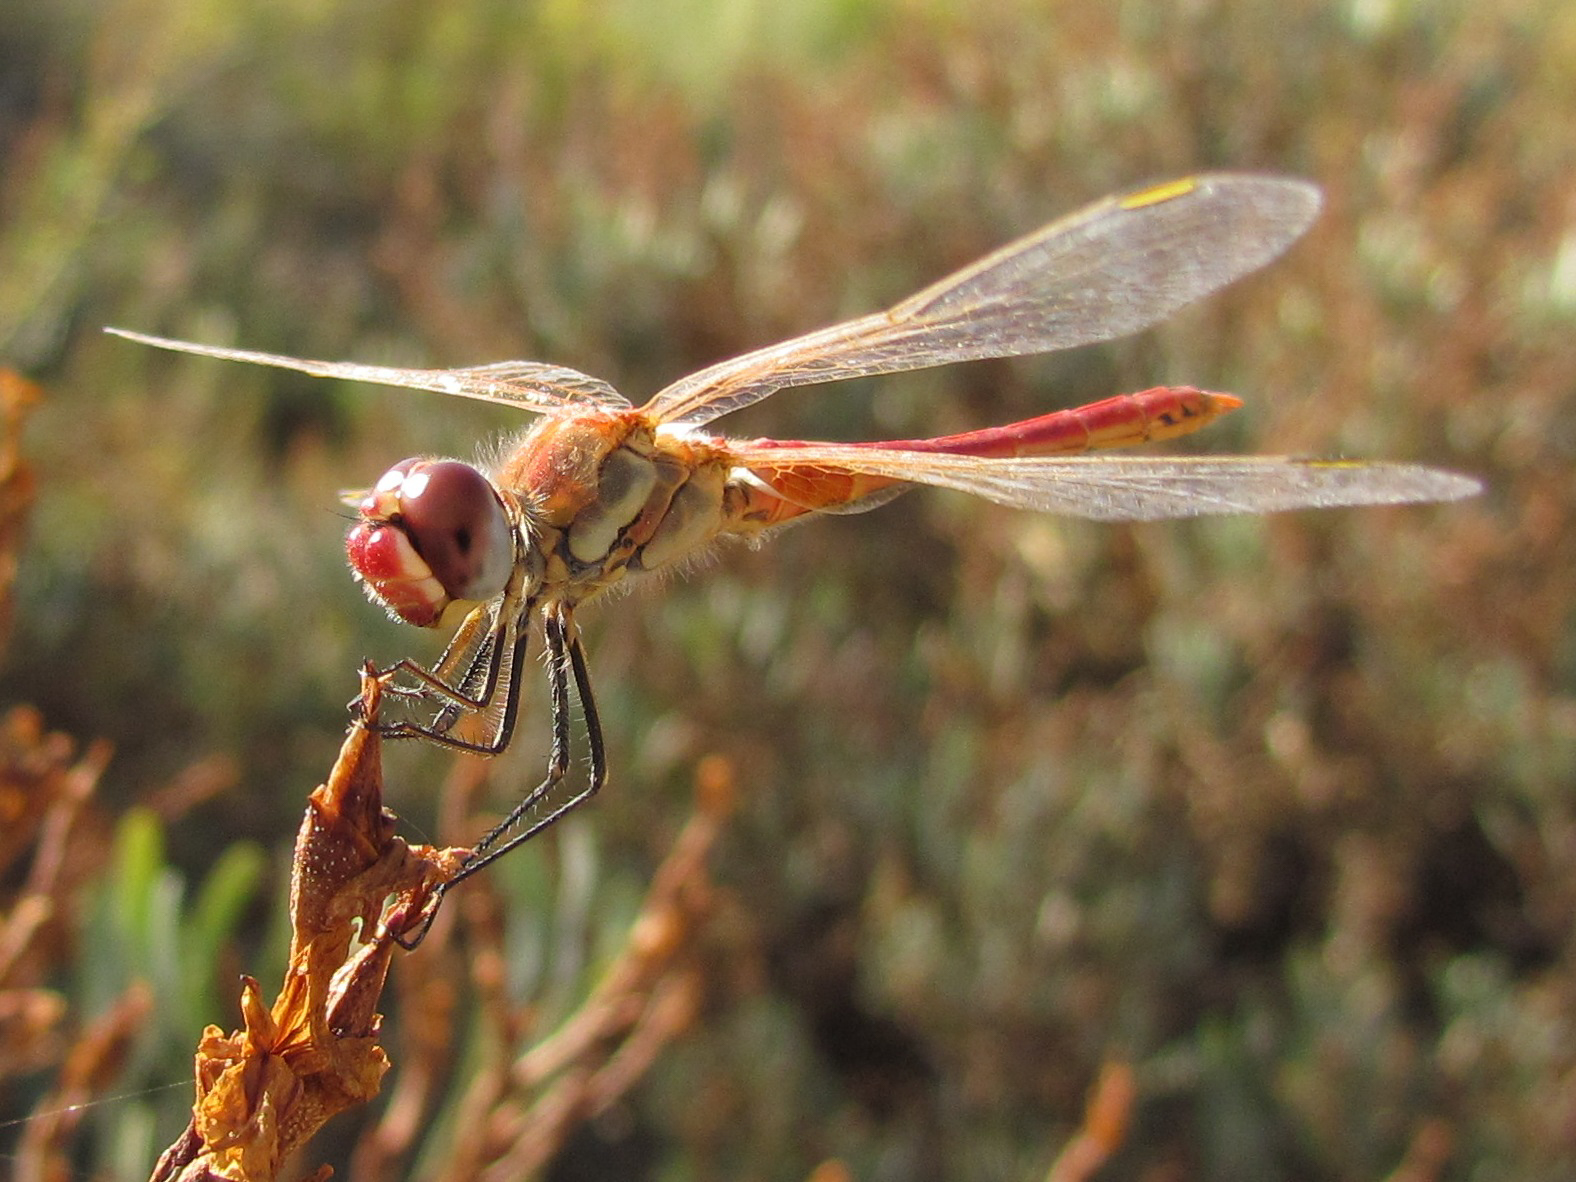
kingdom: Animalia
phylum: Arthropoda
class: Insecta
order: Odonata
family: Libellulidae
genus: Sympetrum
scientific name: Sympetrum fonscolombii
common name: Red-veined darter
